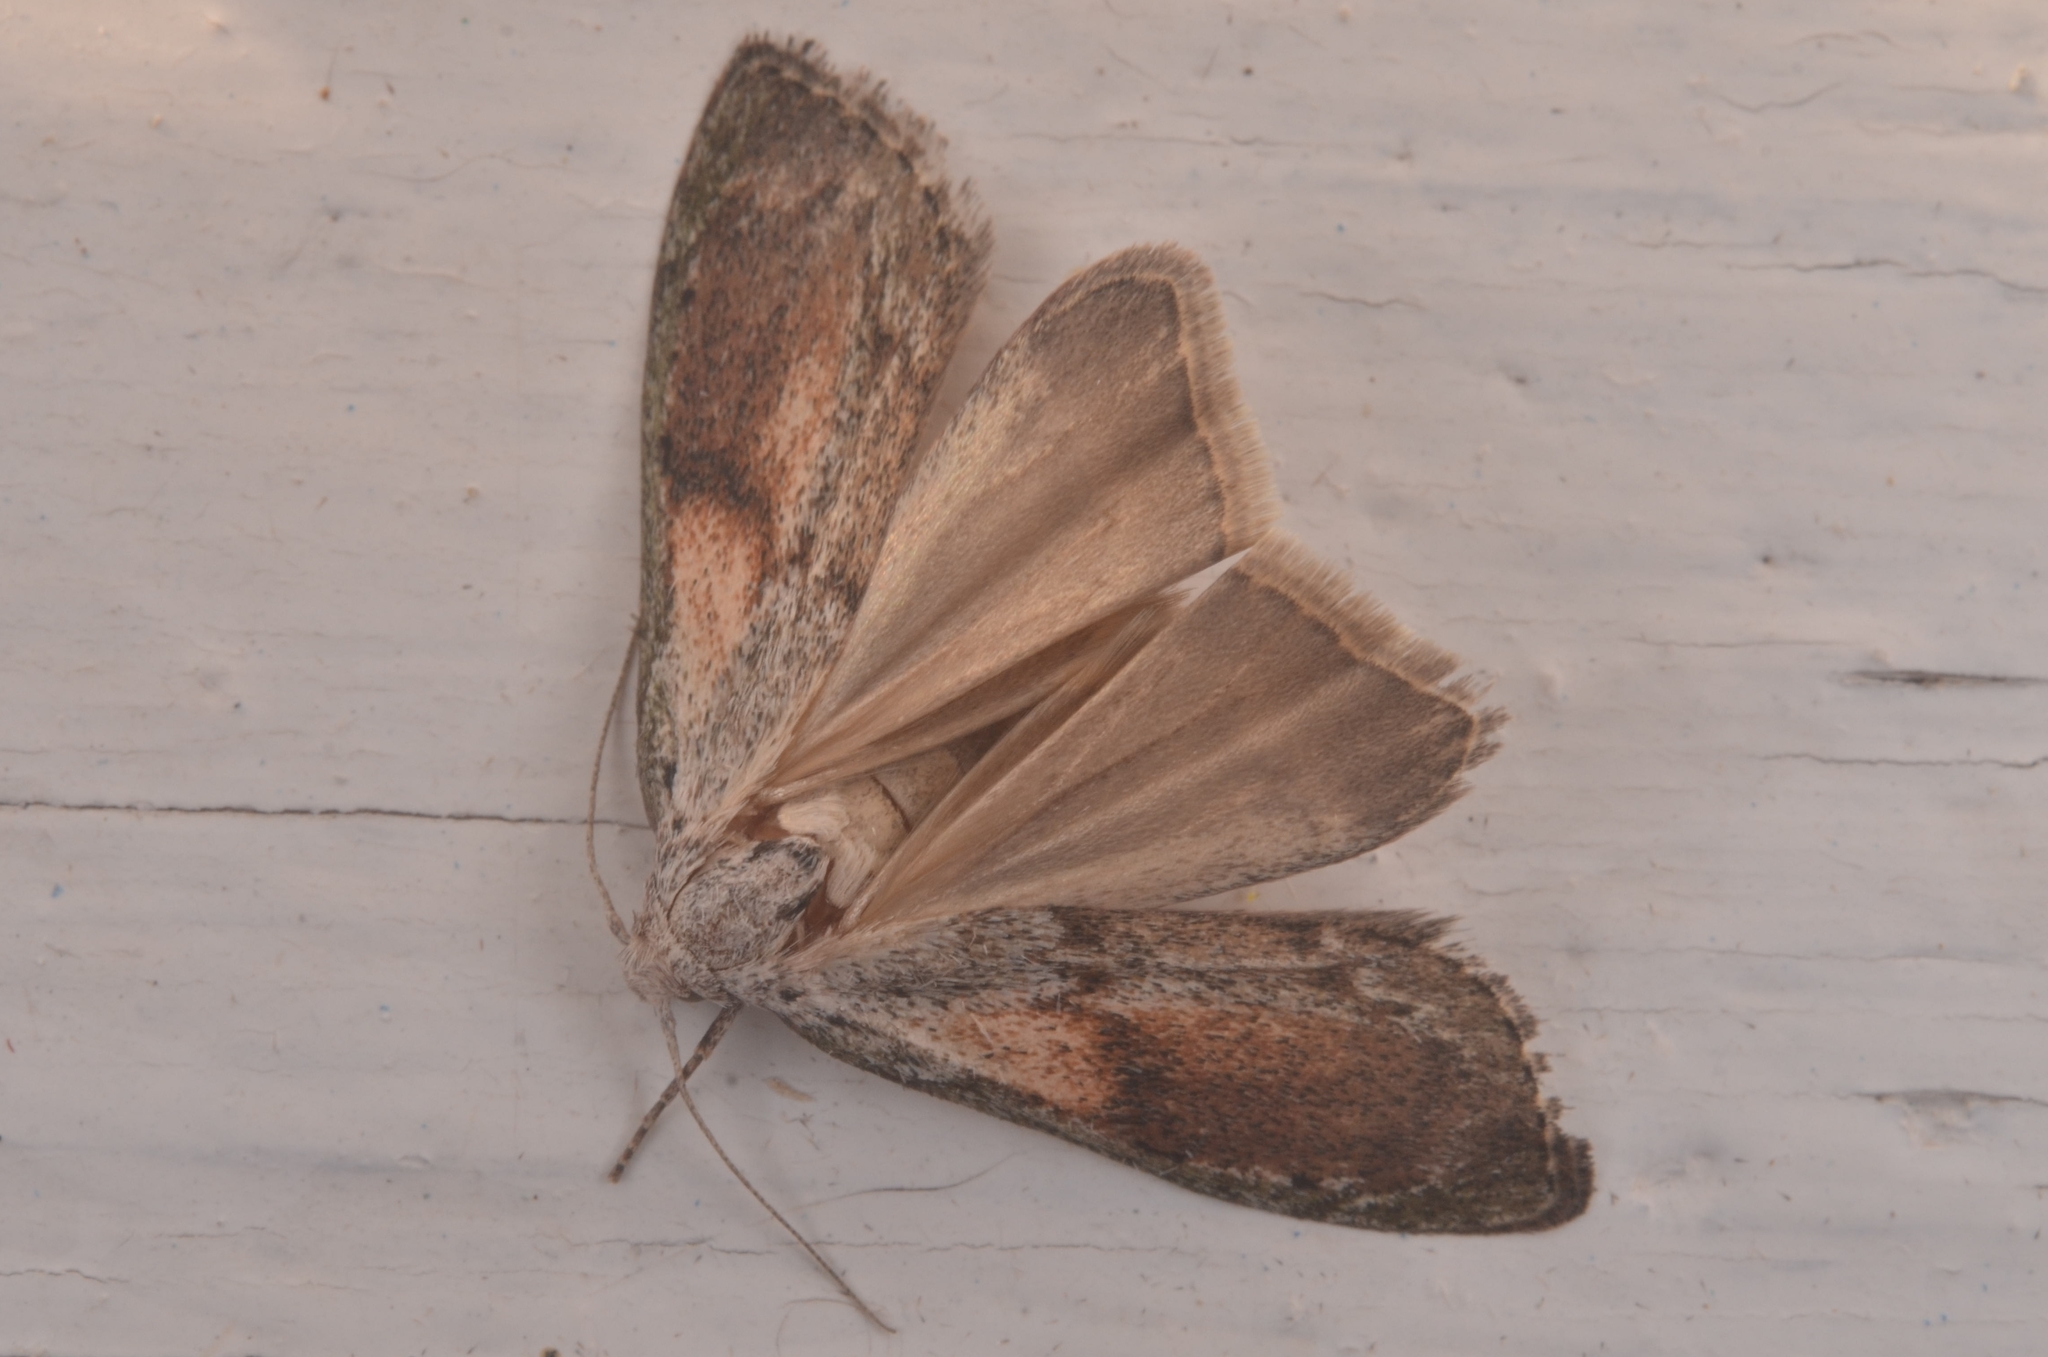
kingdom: Animalia
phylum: Arthropoda
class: Insecta
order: Lepidoptera
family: Pyralidae
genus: Aphomia
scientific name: Aphomia sociella
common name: Bee moth
